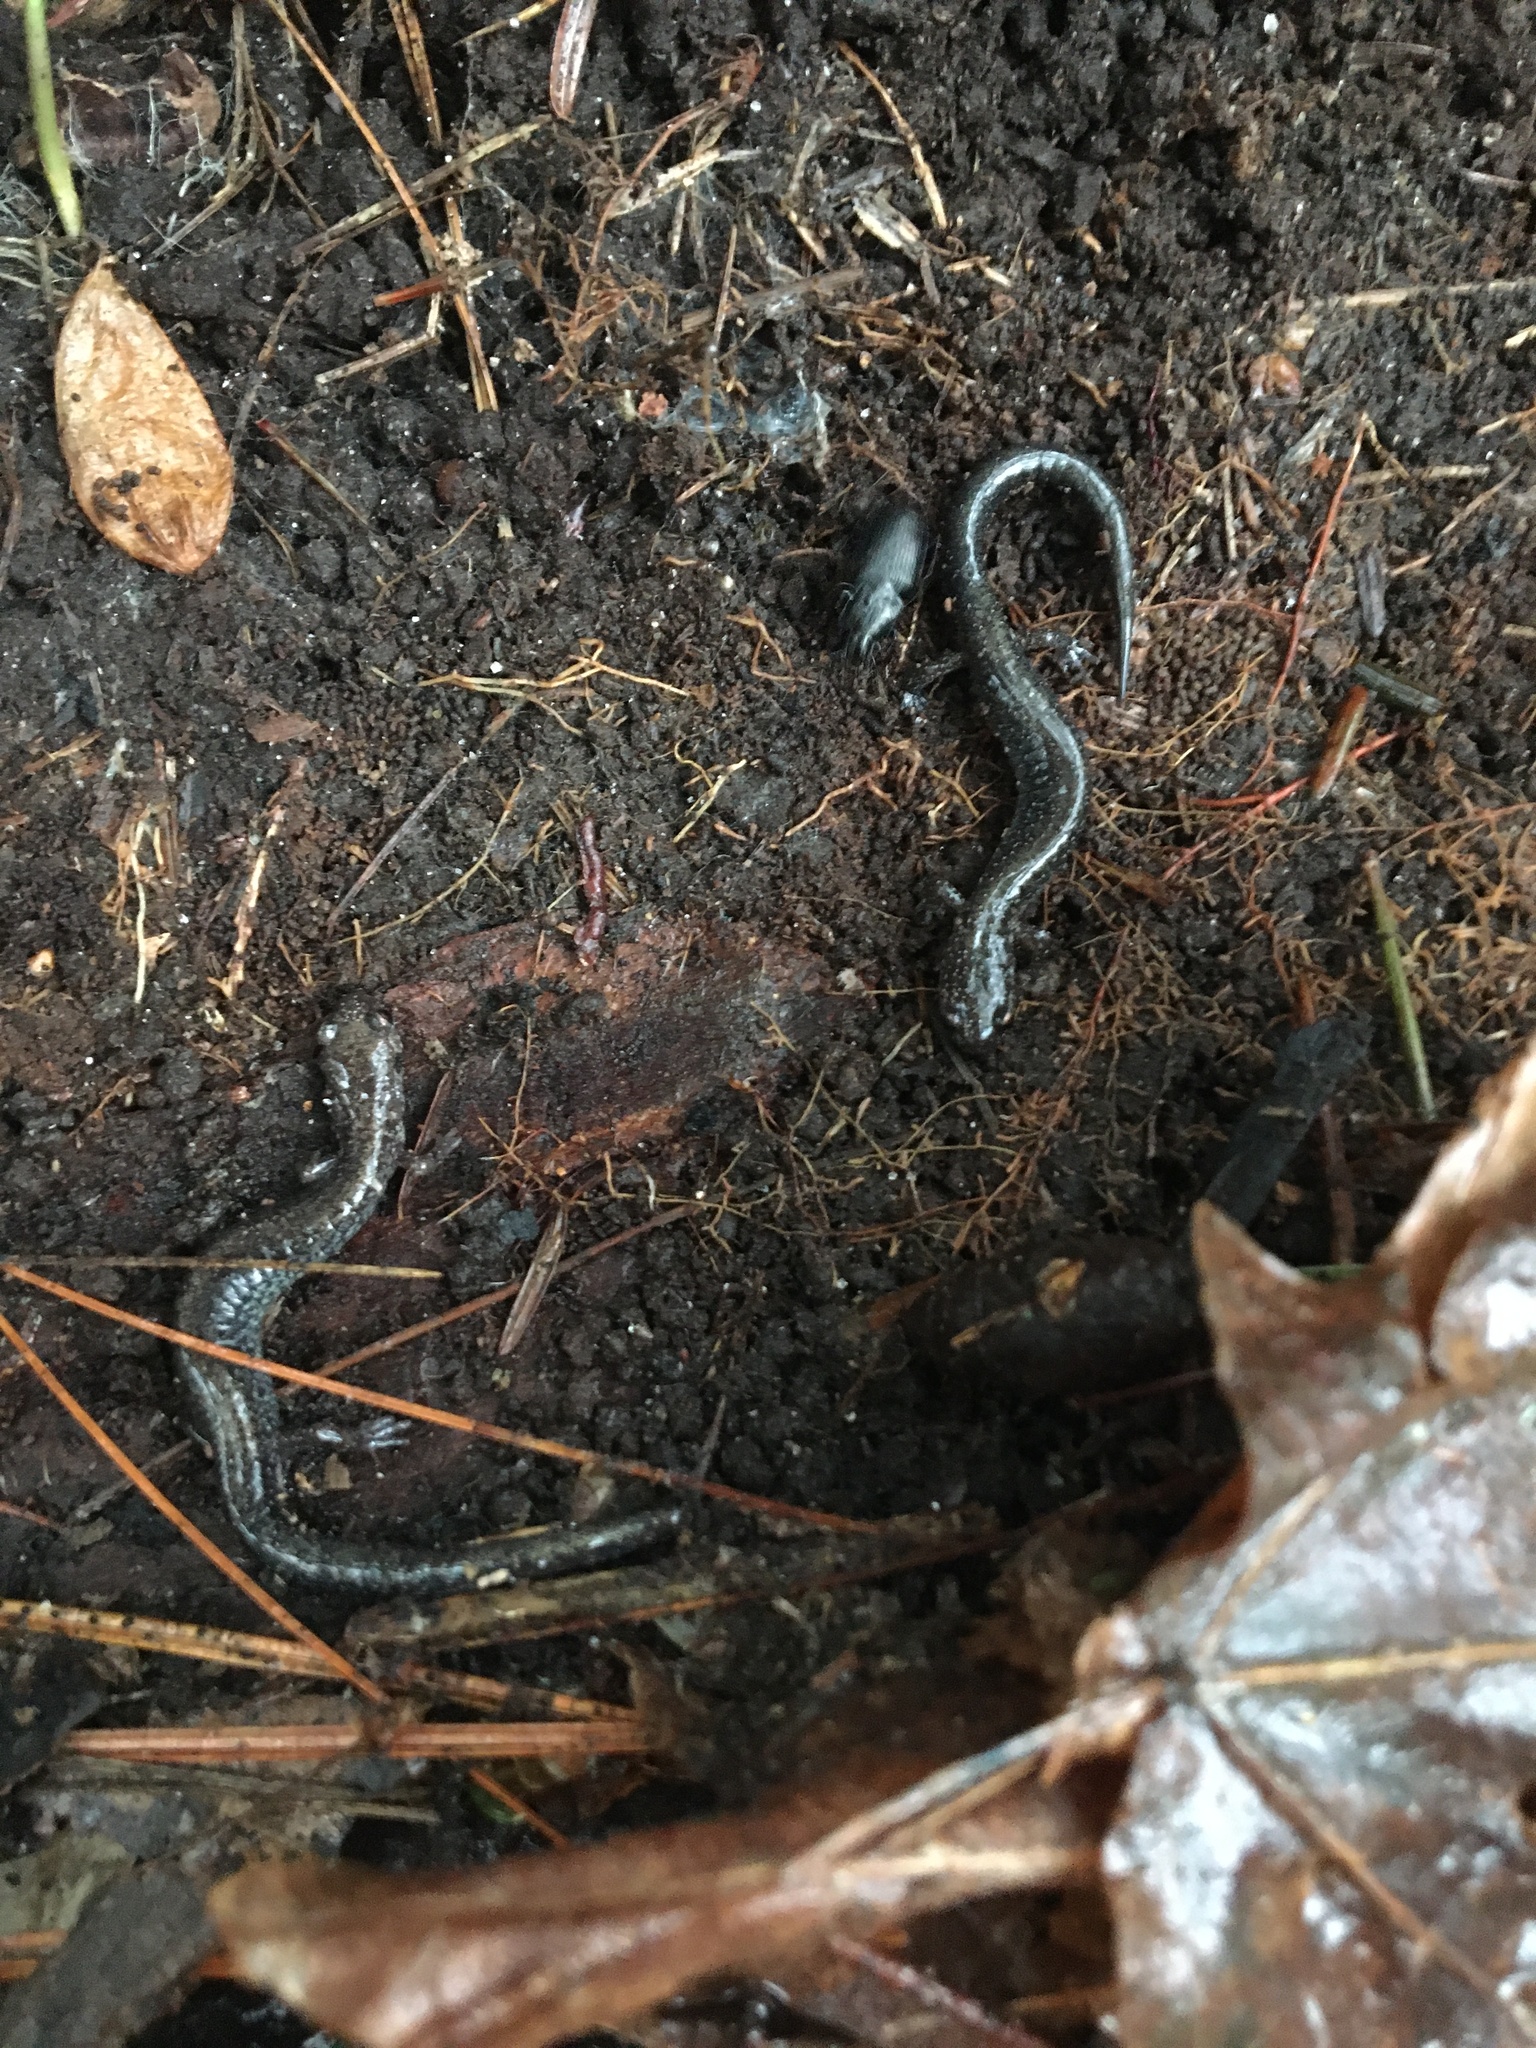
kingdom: Animalia
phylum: Chordata
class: Amphibia
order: Caudata
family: Plethodontidae
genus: Plethodon
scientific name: Plethodon cinereus
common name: Redback salamander
